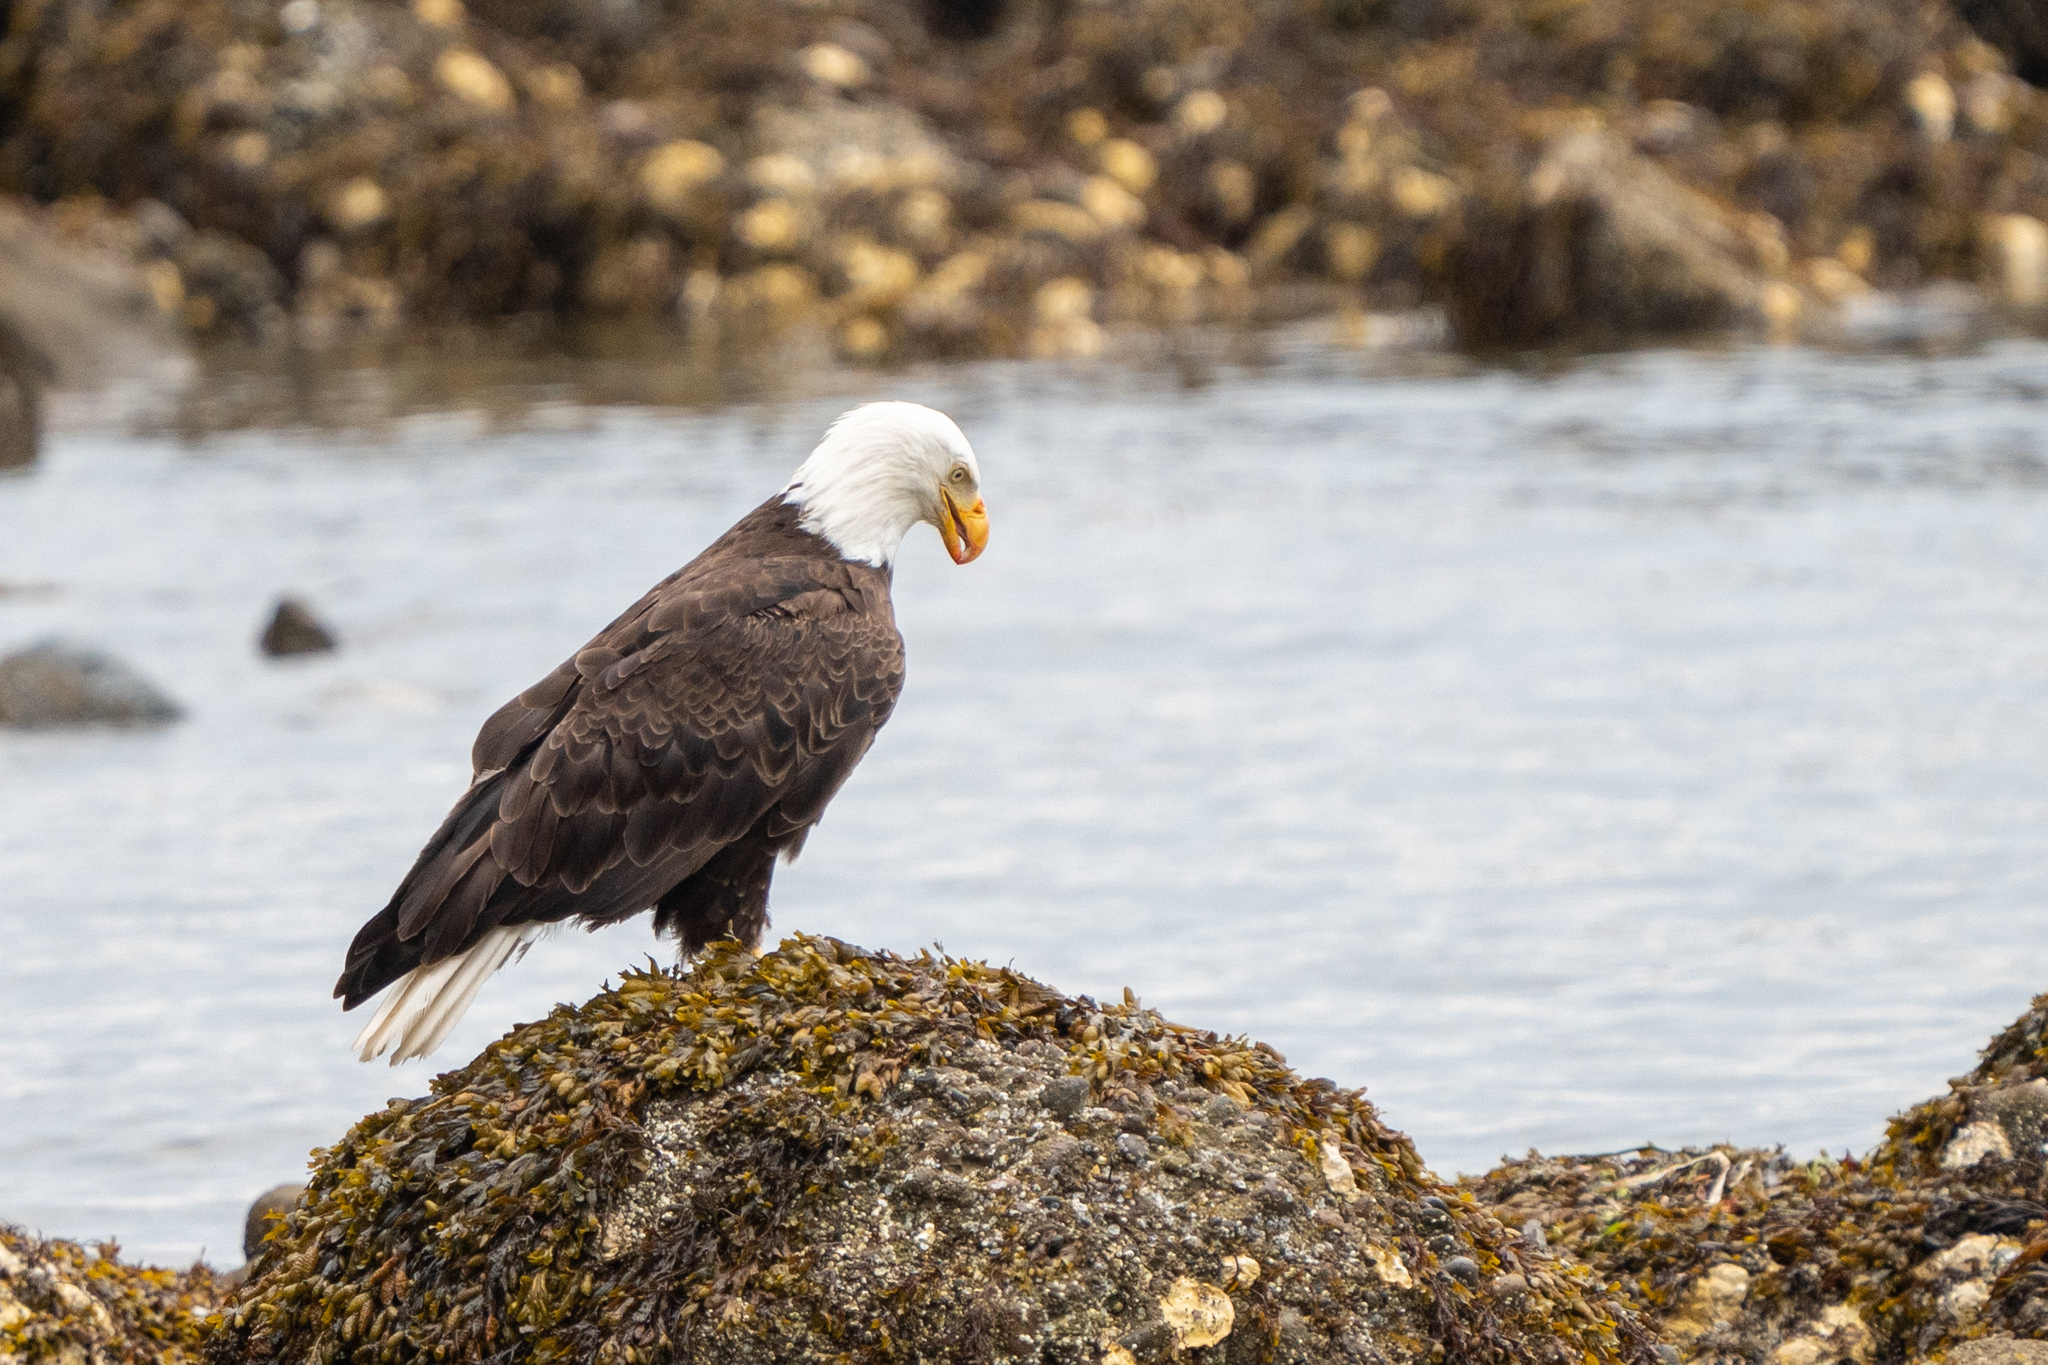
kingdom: Animalia
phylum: Chordata
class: Aves
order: Accipitriformes
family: Accipitridae
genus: Haliaeetus
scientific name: Haliaeetus leucocephalus
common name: Bald eagle
